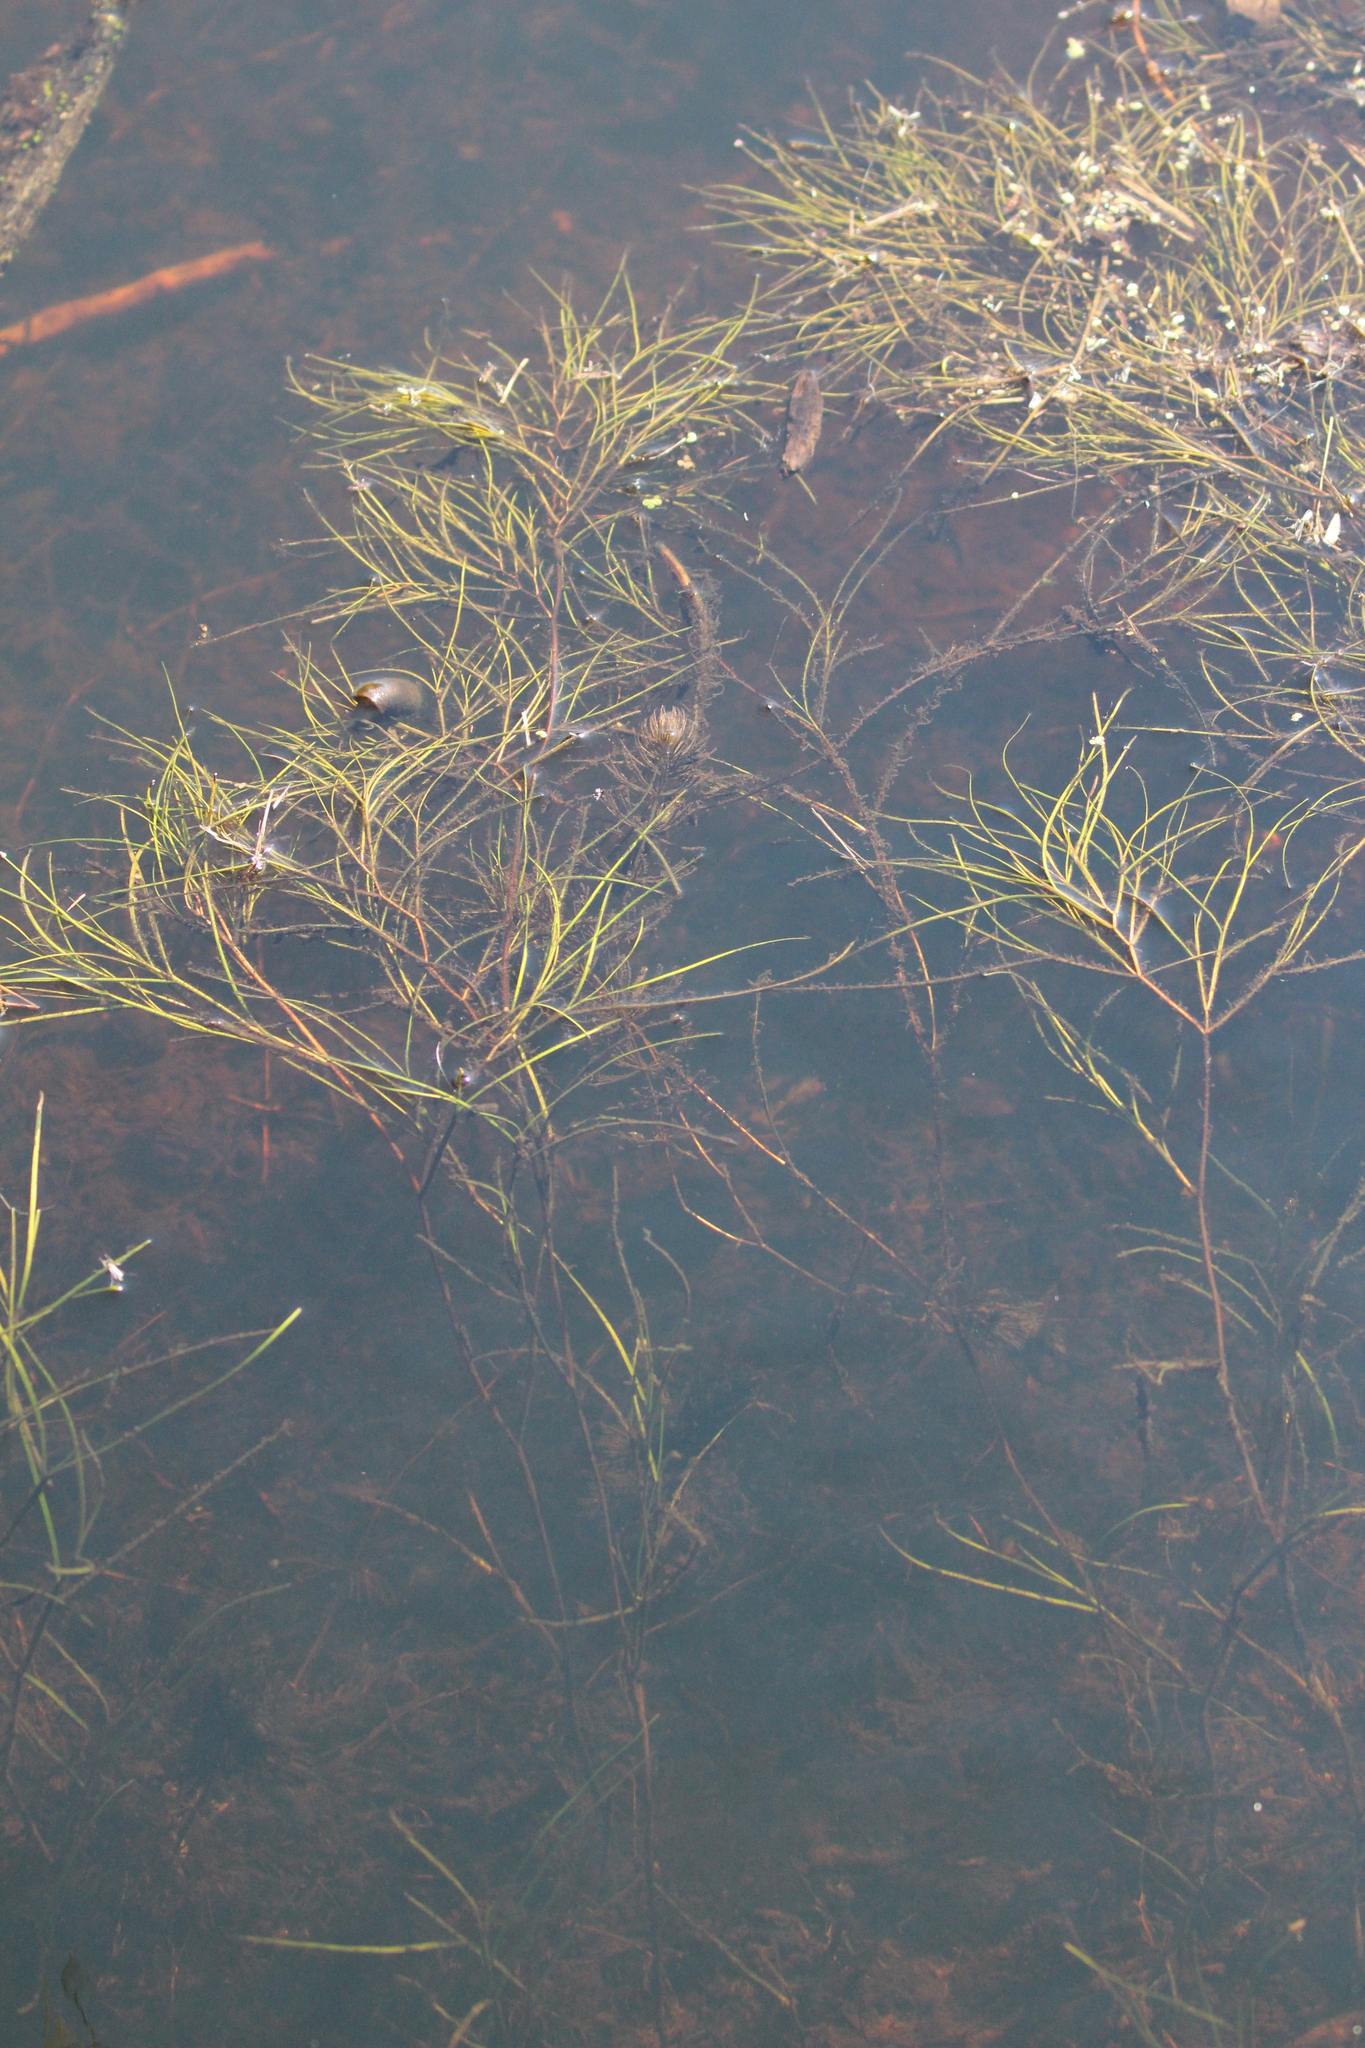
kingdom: Plantae
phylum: Tracheophyta
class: Liliopsida
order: Alismatales
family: Potamogetonaceae
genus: Stuckenia
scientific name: Stuckenia pectinata
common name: Sago pondweed
